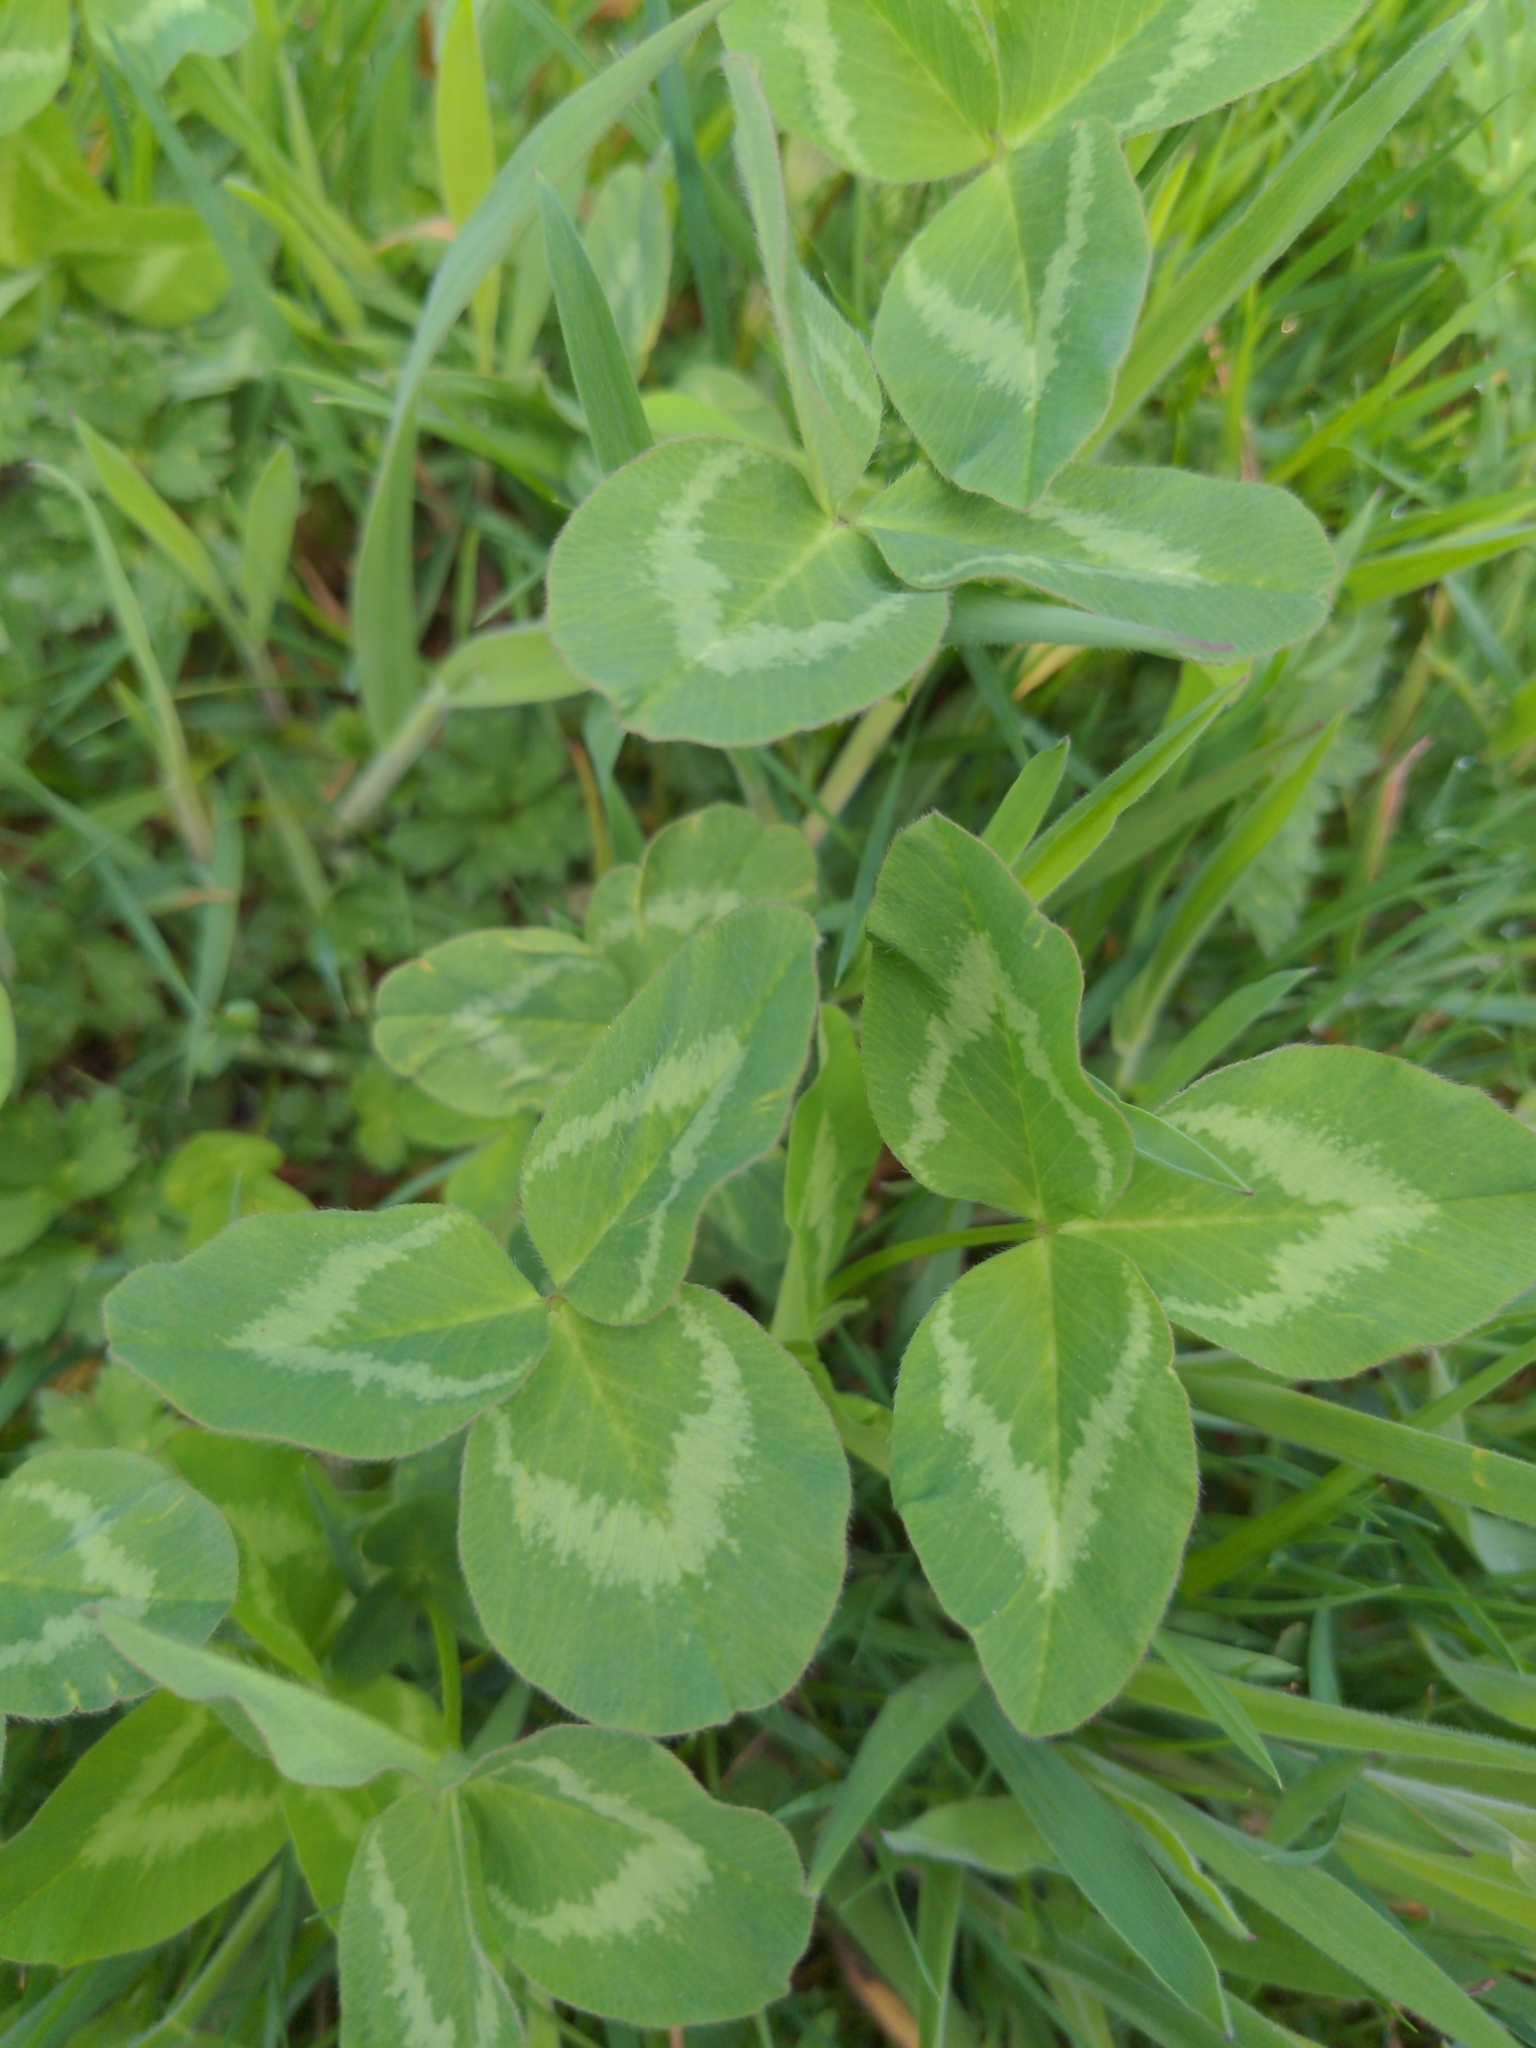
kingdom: Plantae
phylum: Tracheophyta
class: Magnoliopsida
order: Fabales
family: Fabaceae
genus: Trifolium
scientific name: Trifolium pratense
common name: Red clover
